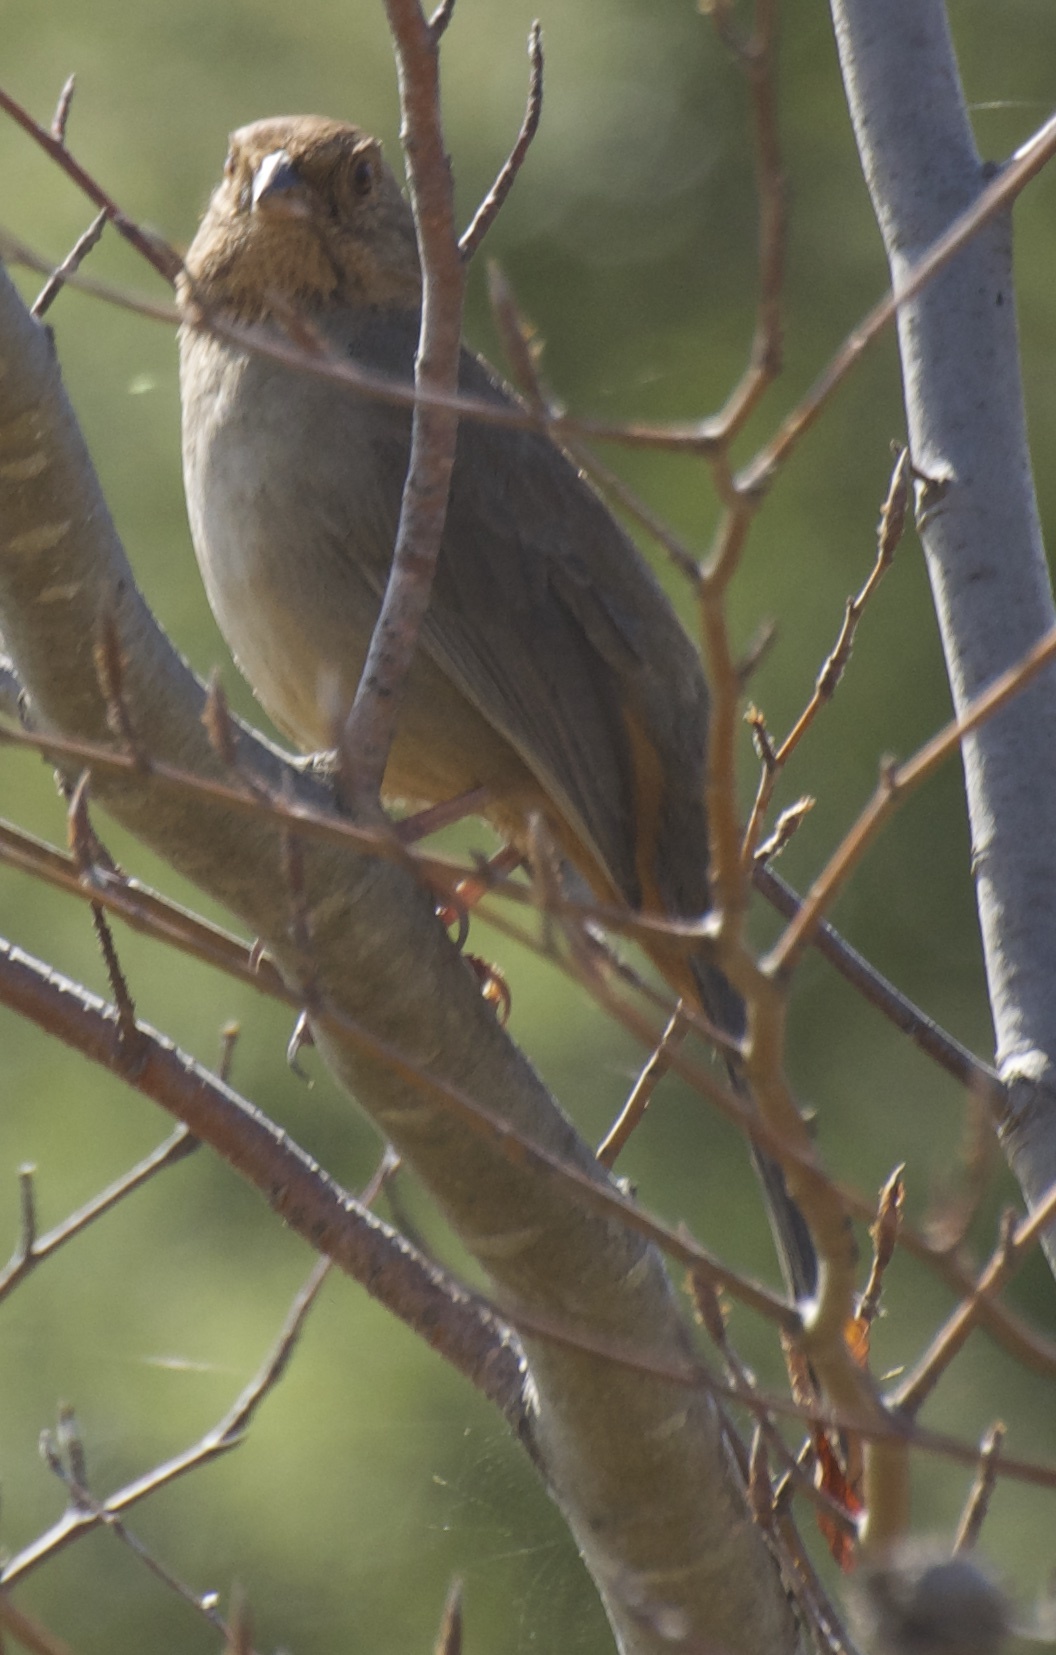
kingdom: Animalia
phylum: Chordata
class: Aves
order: Passeriformes
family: Passerellidae
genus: Melozone
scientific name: Melozone crissalis
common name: California towhee
